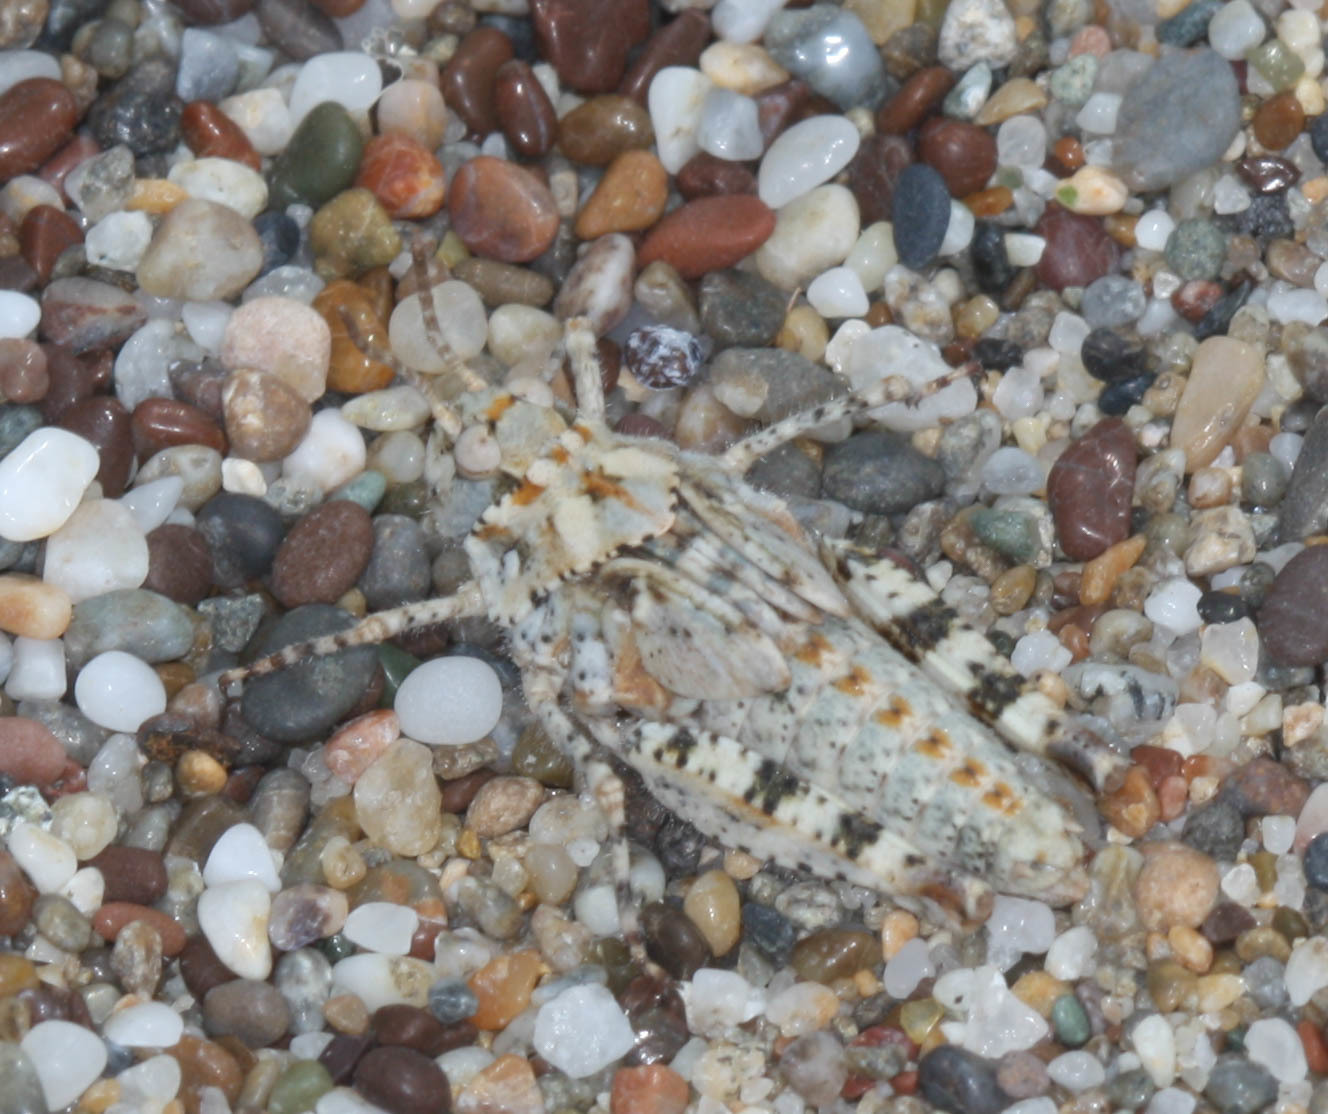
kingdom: Animalia
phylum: Arthropoda
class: Insecta
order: Orthoptera
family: Acrididae
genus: Microtes
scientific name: Microtes occidentalis
